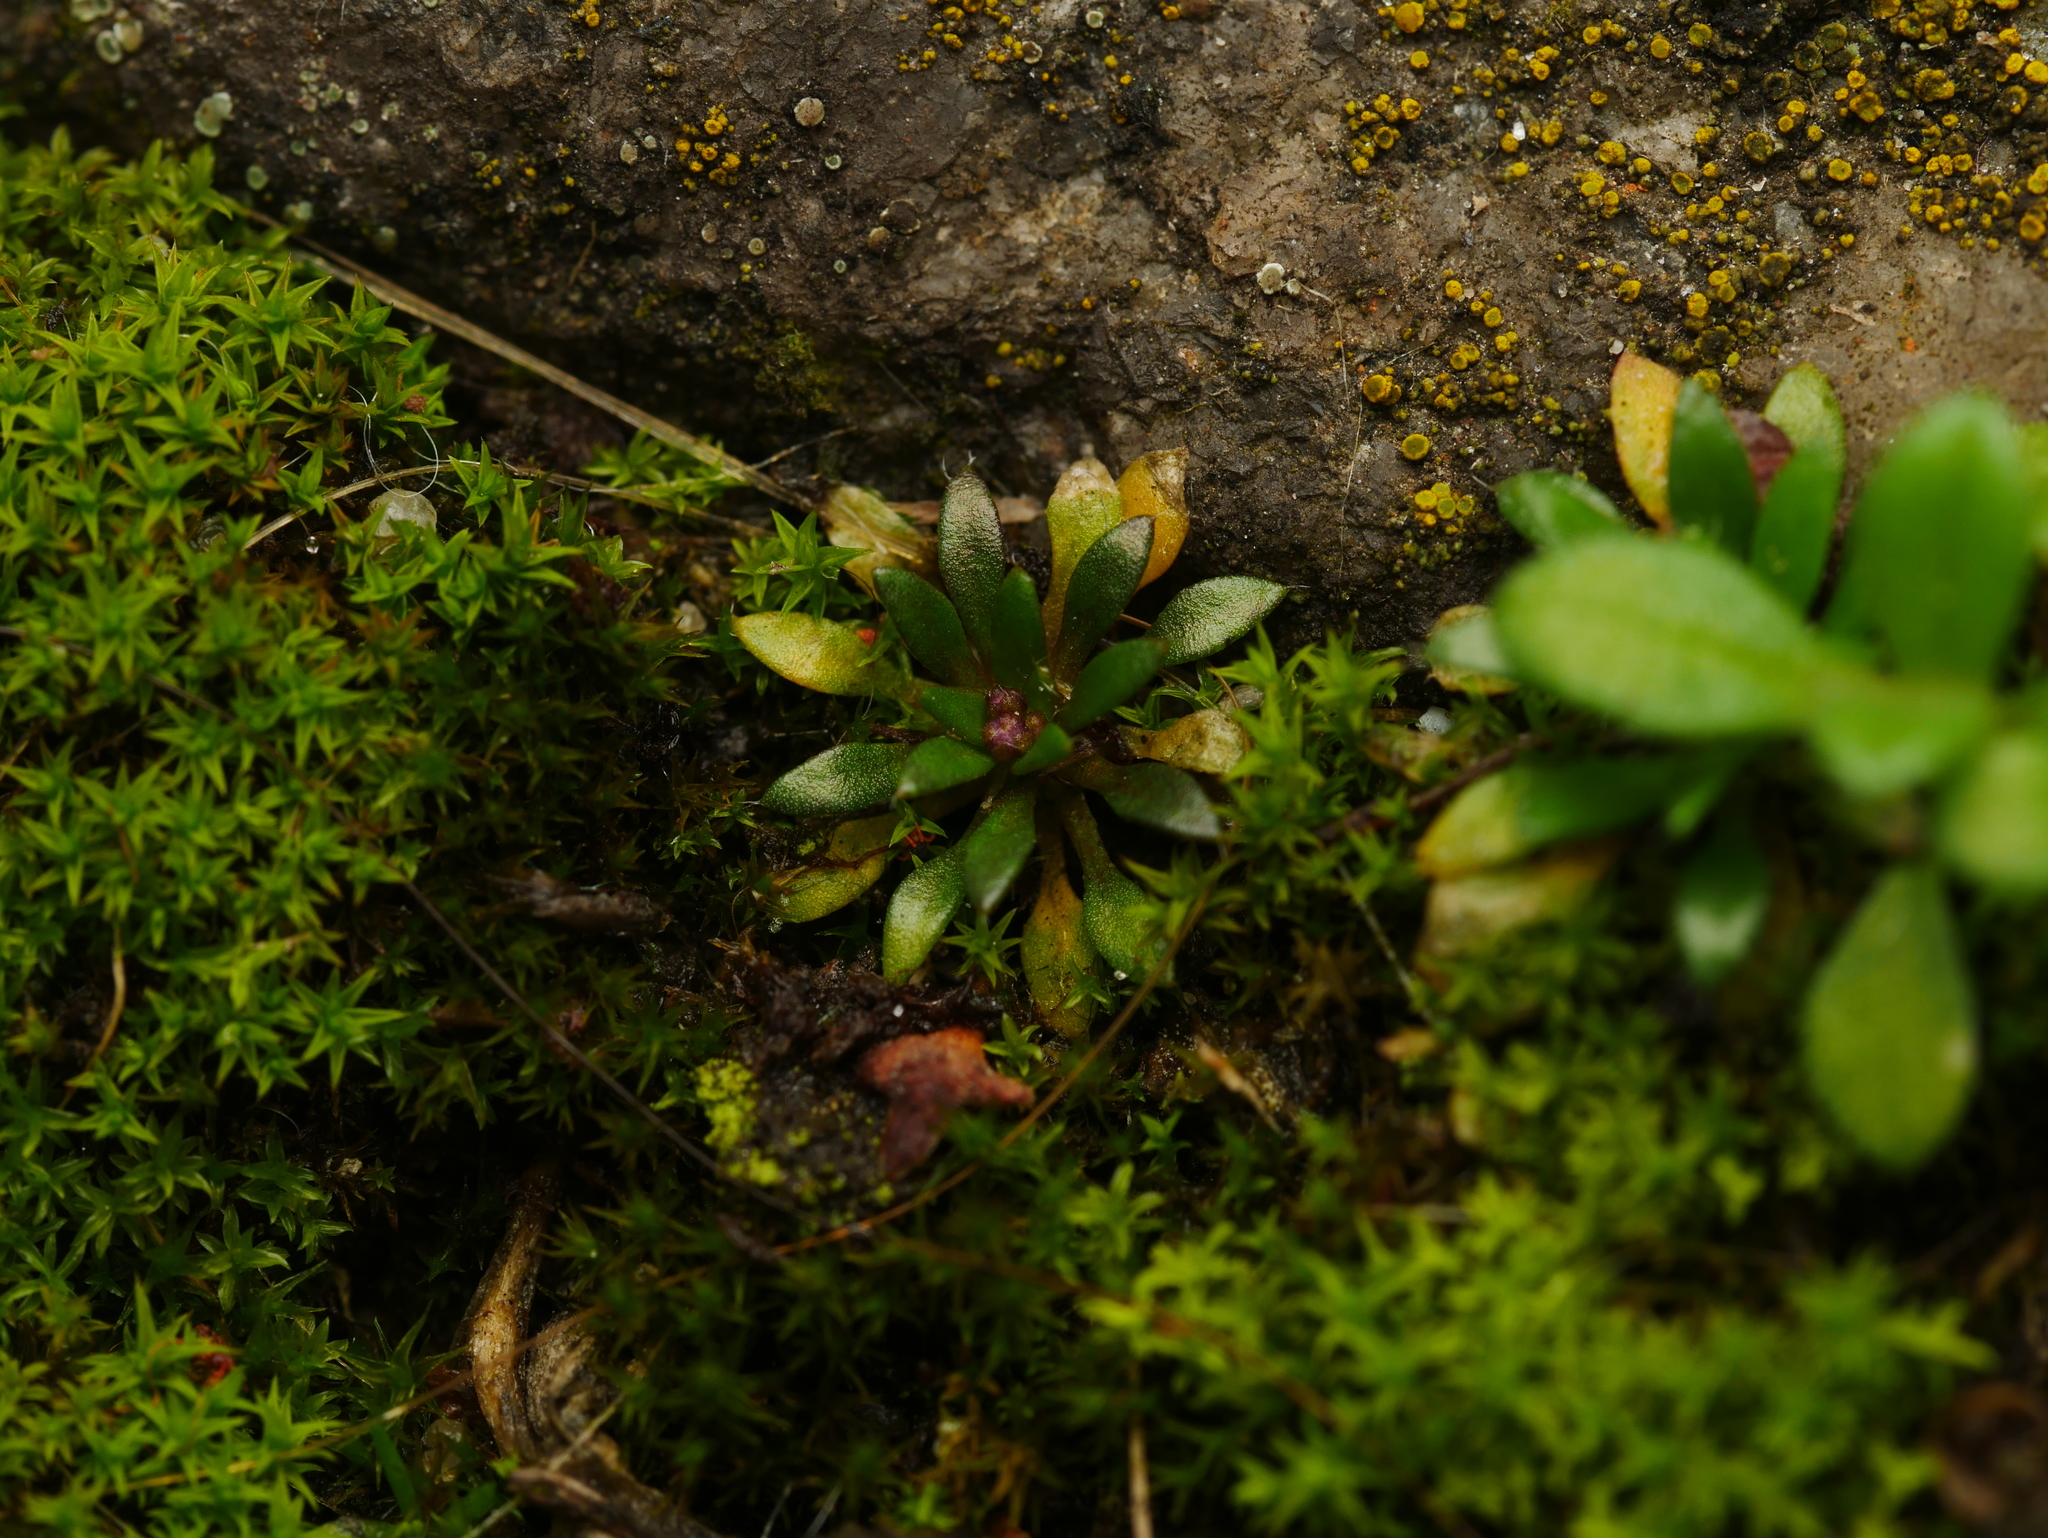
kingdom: Plantae
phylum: Tracheophyta
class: Magnoliopsida
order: Brassicales
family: Brassicaceae
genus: Draba
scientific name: Draba verna
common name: Spring draba
